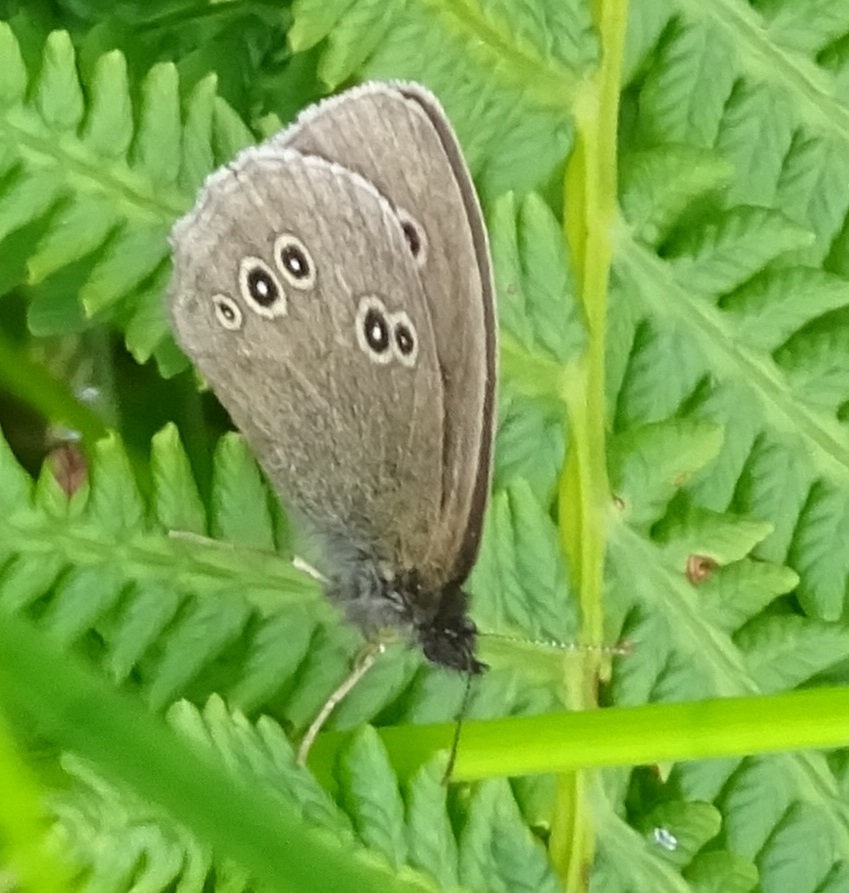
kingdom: Animalia
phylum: Arthropoda
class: Insecta
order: Lepidoptera
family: Nymphalidae
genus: Aphantopus
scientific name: Aphantopus hyperantus
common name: Ringlet
